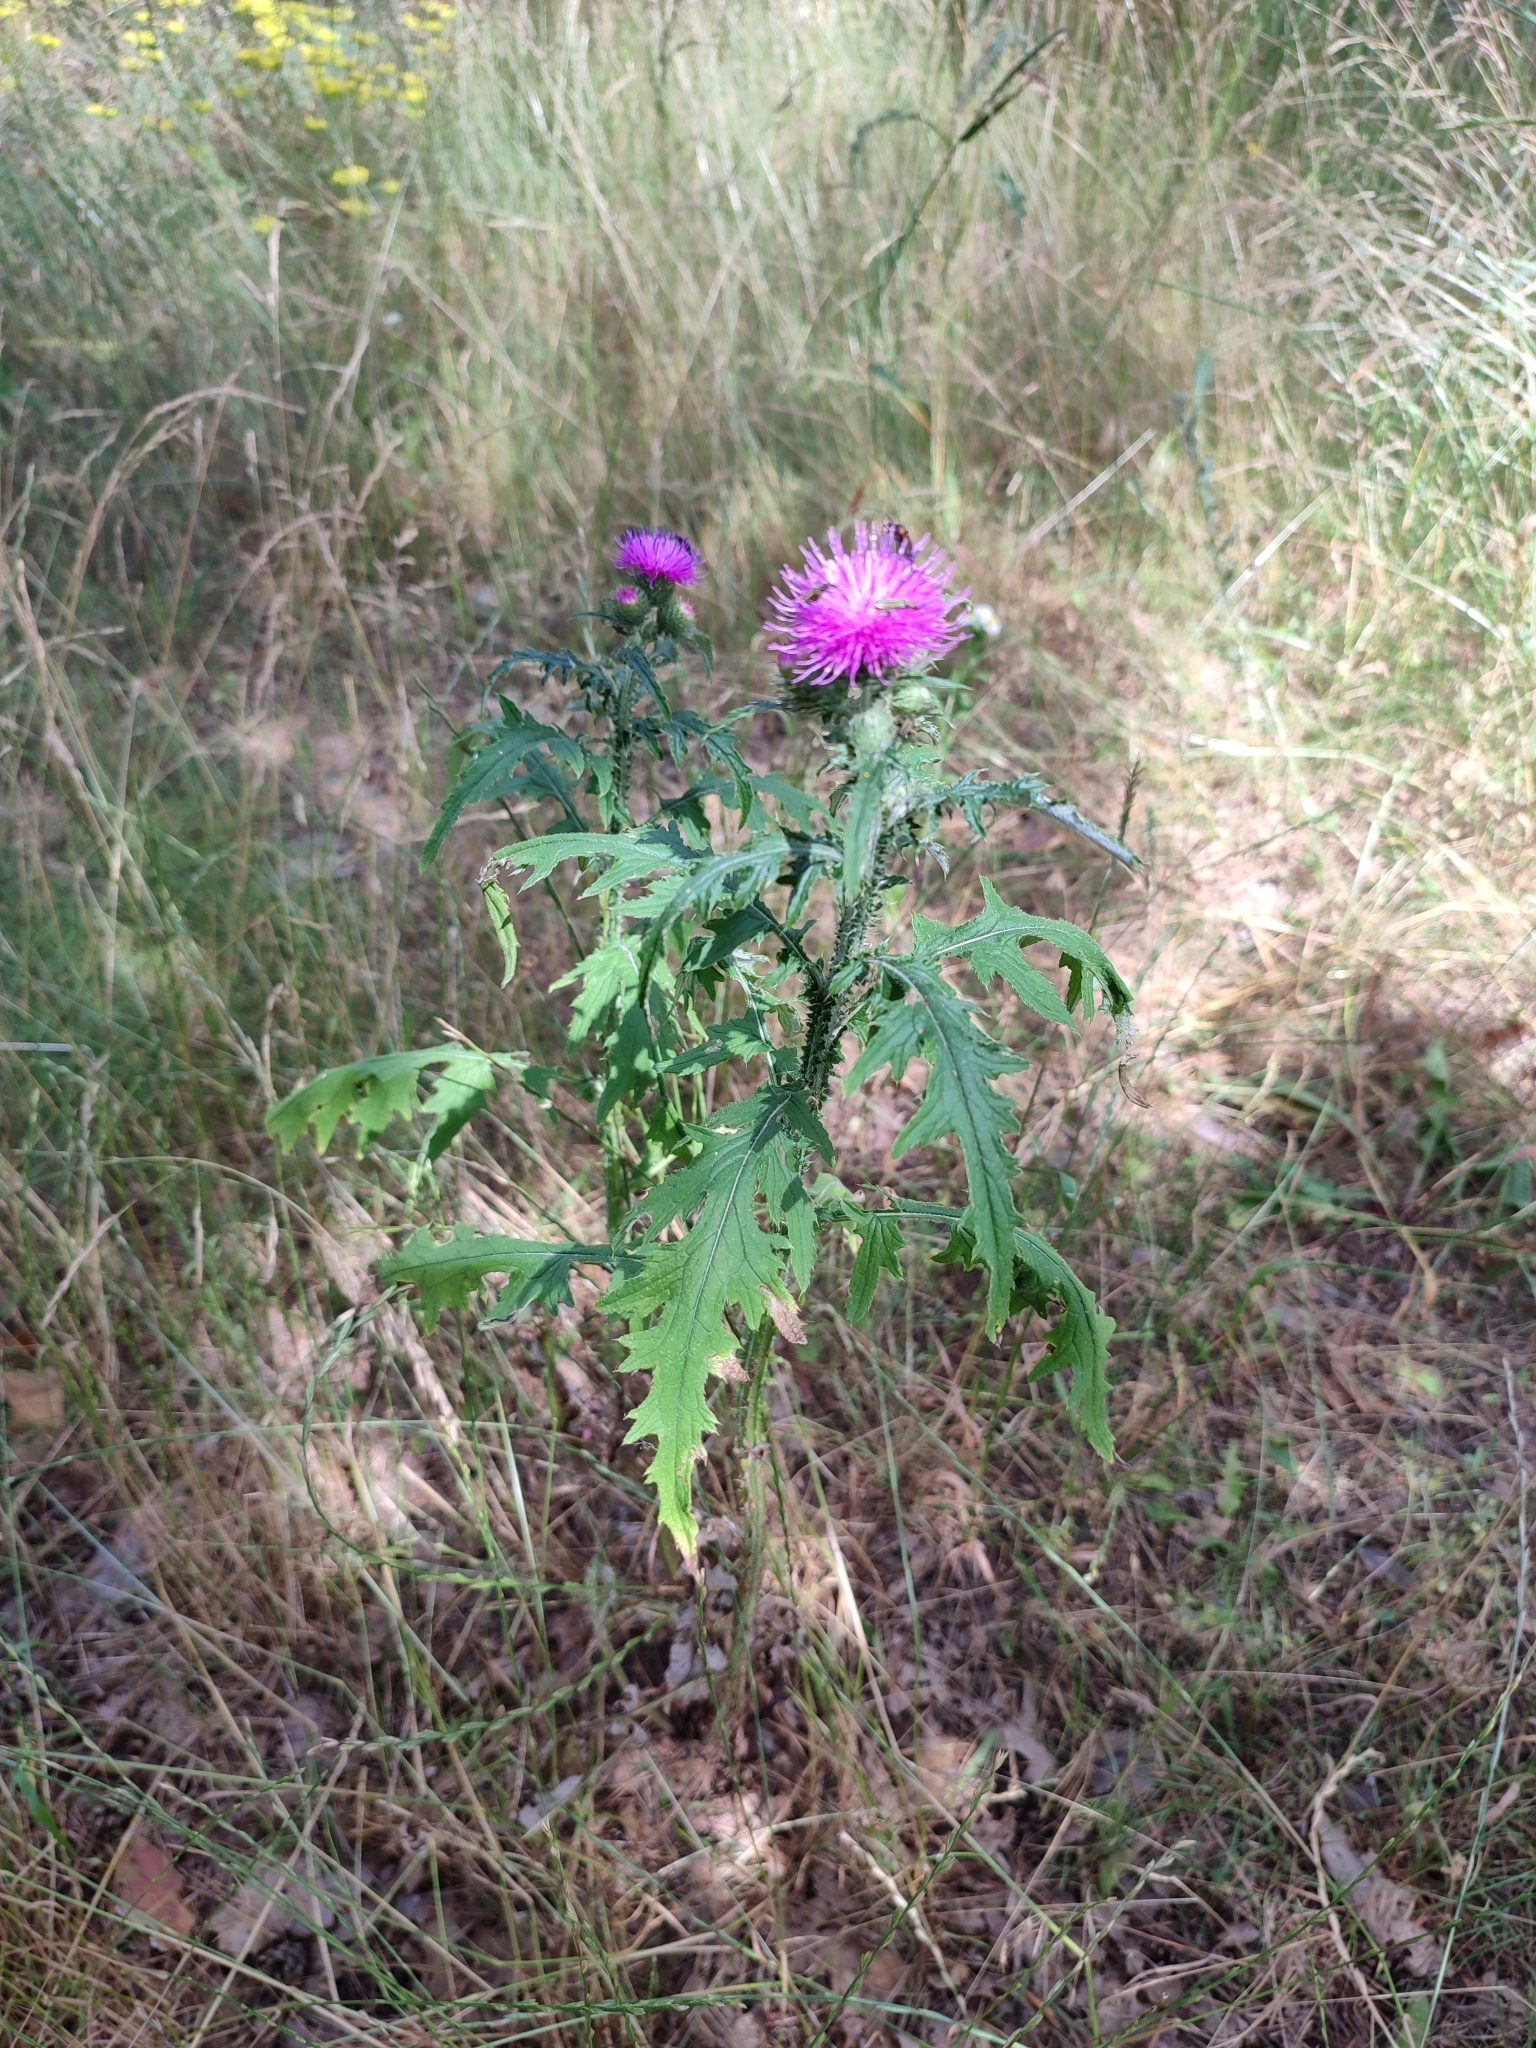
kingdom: Plantae
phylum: Tracheophyta
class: Magnoliopsida
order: Asterales
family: Asteraceae
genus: Carduus
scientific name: Carduus crispus
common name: Welted thistle
